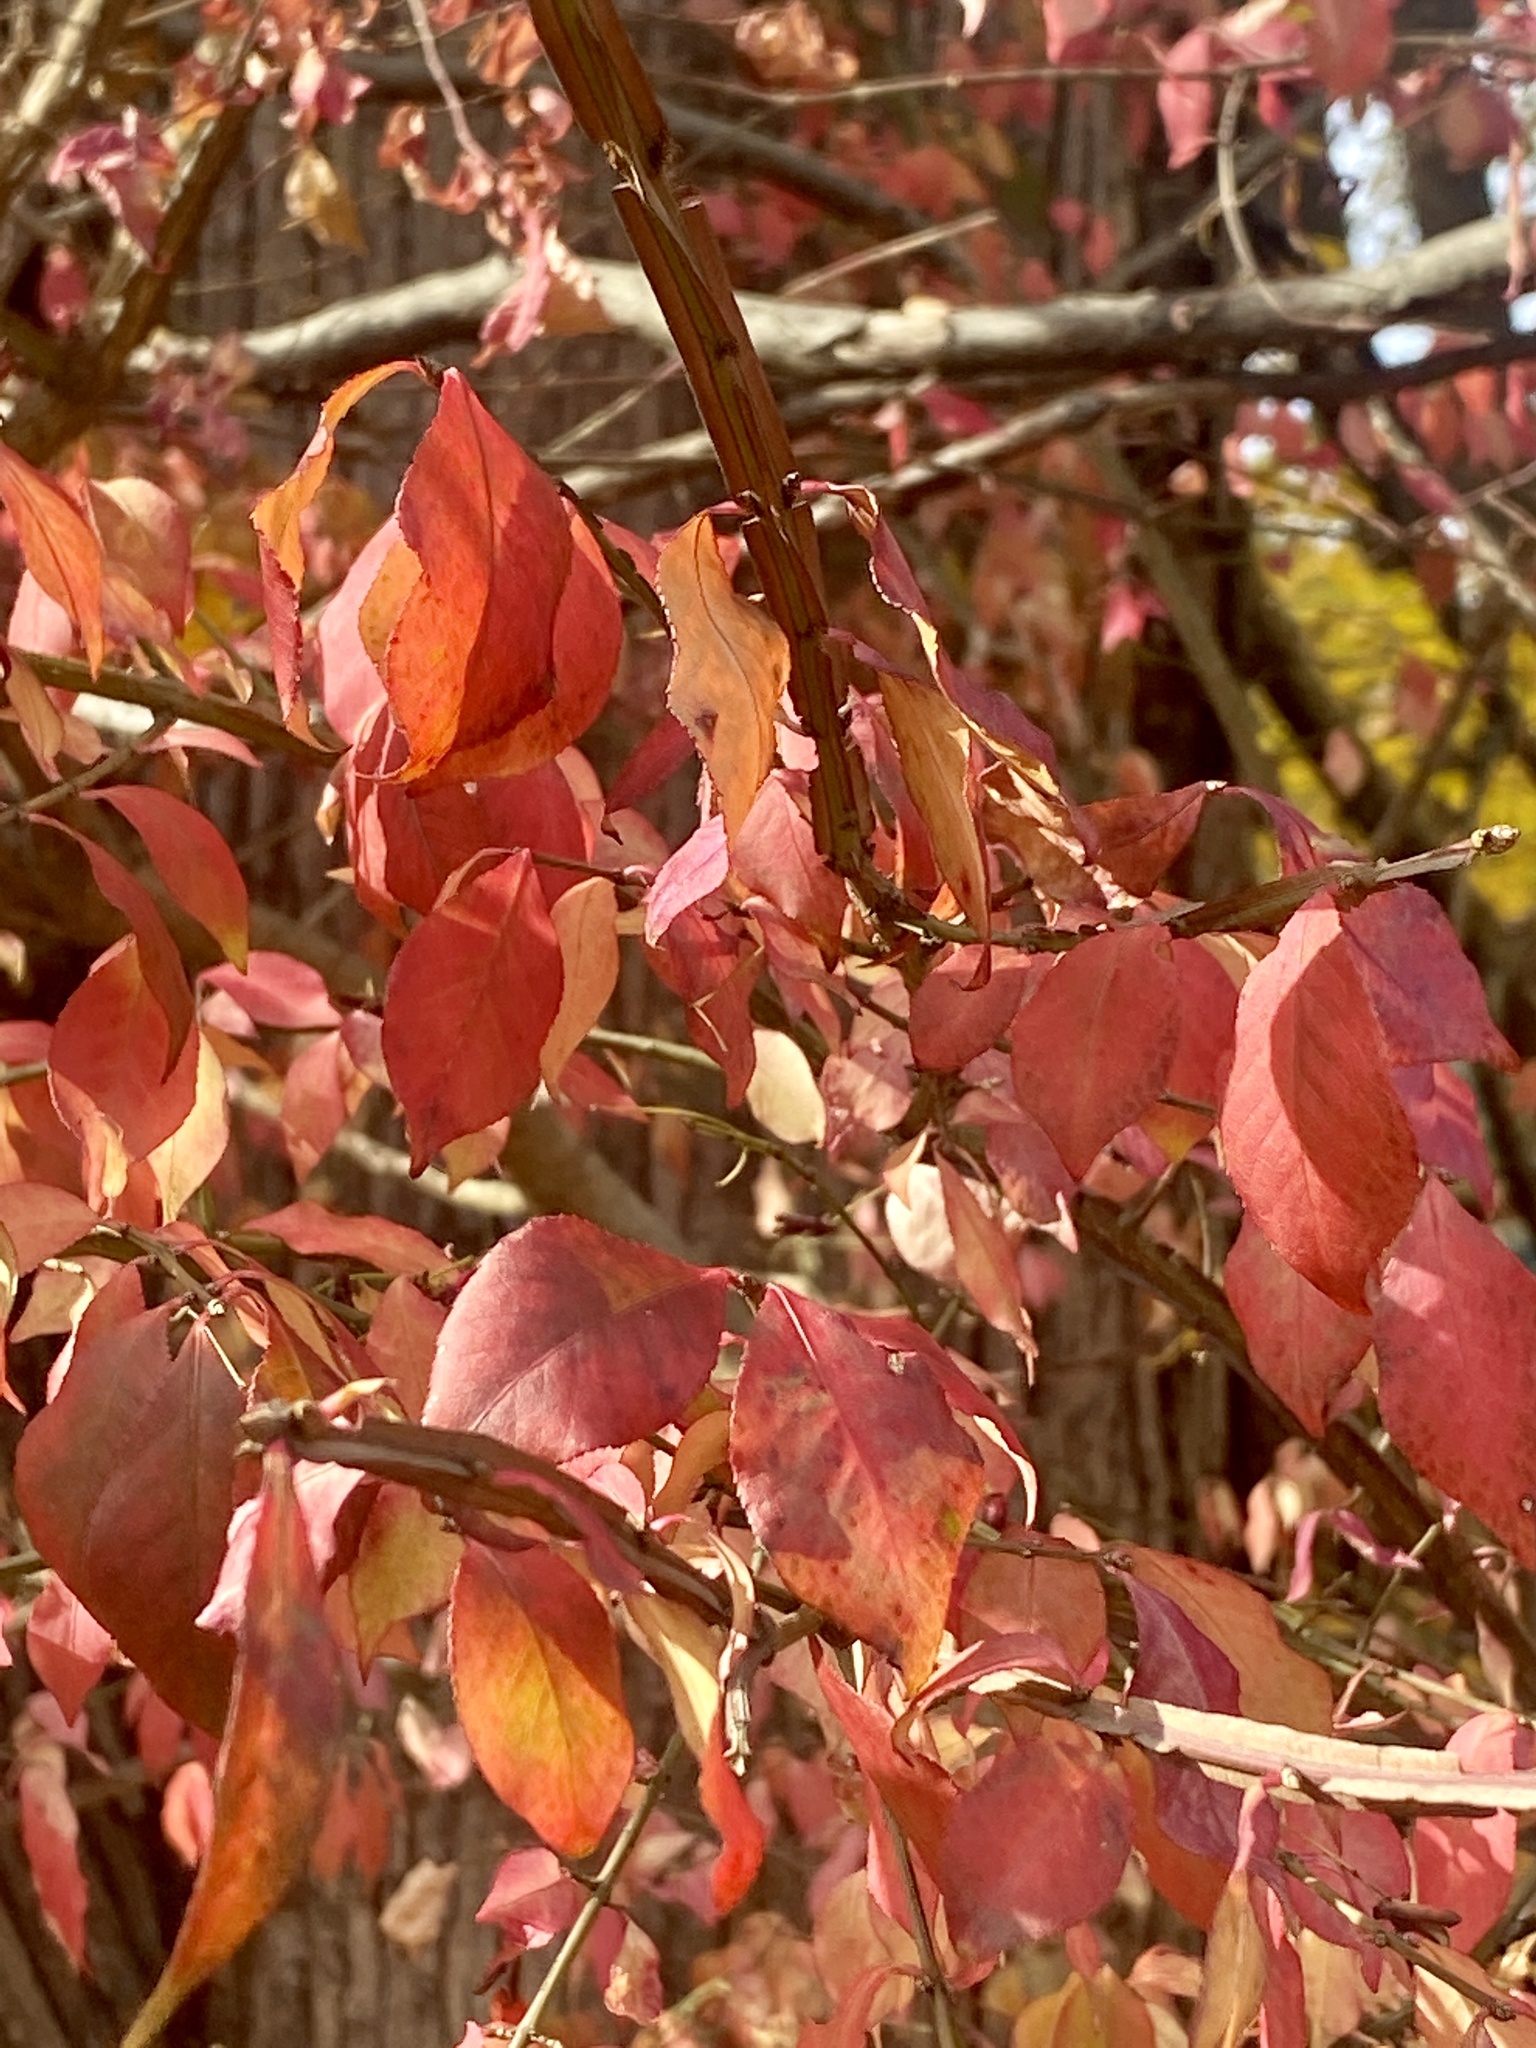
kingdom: Plantae
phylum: Tracheophyta
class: Magnoliopsida
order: Celastrales
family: Celastraceae
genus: Euonymus
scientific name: Euonymus alatus
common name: Winged euonymus
